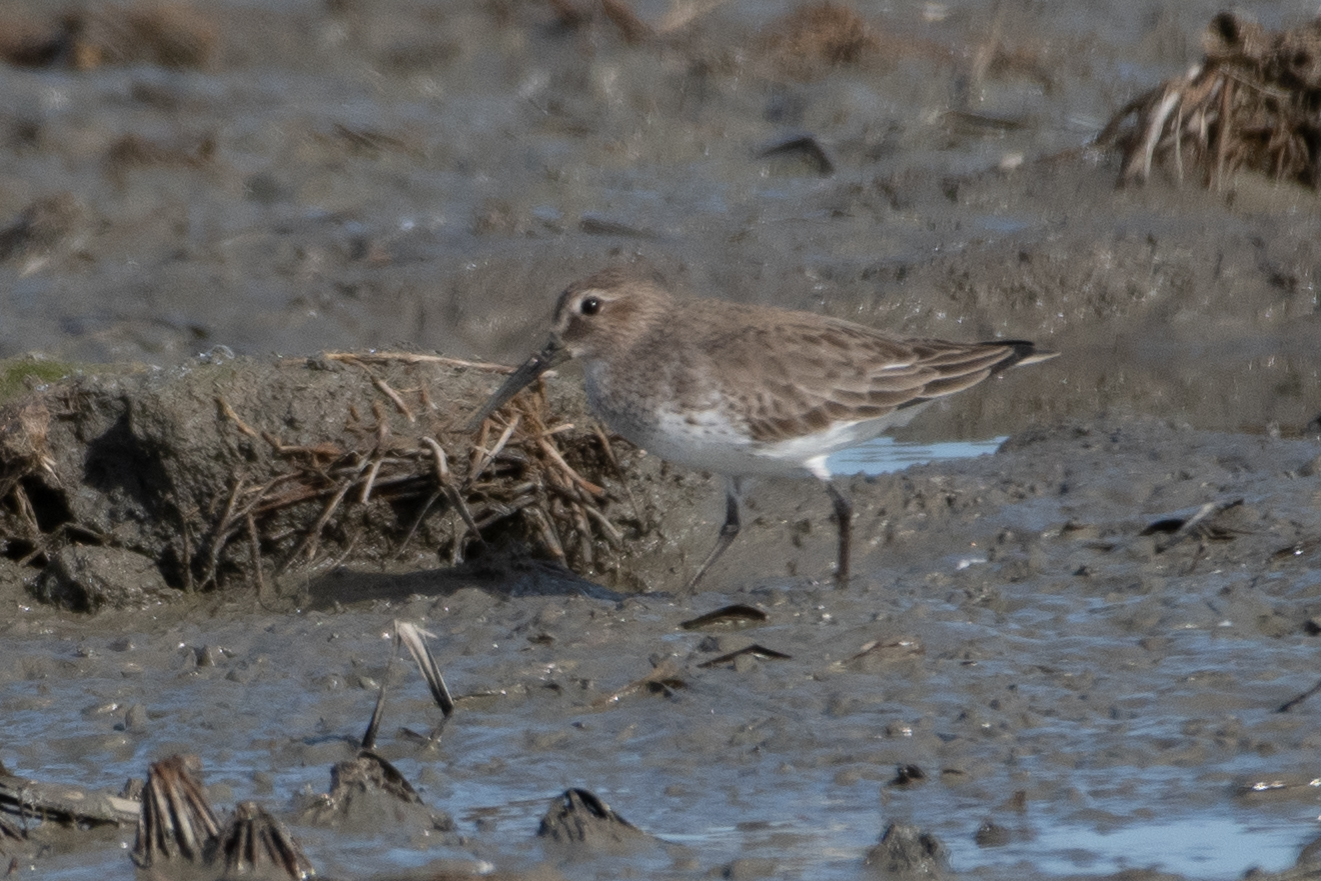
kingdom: Animalia
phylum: Chordata
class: Aves
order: Charadriiformes
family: Scolopacidae
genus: Calidris
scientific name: Calidris alpina
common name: Dunlin
